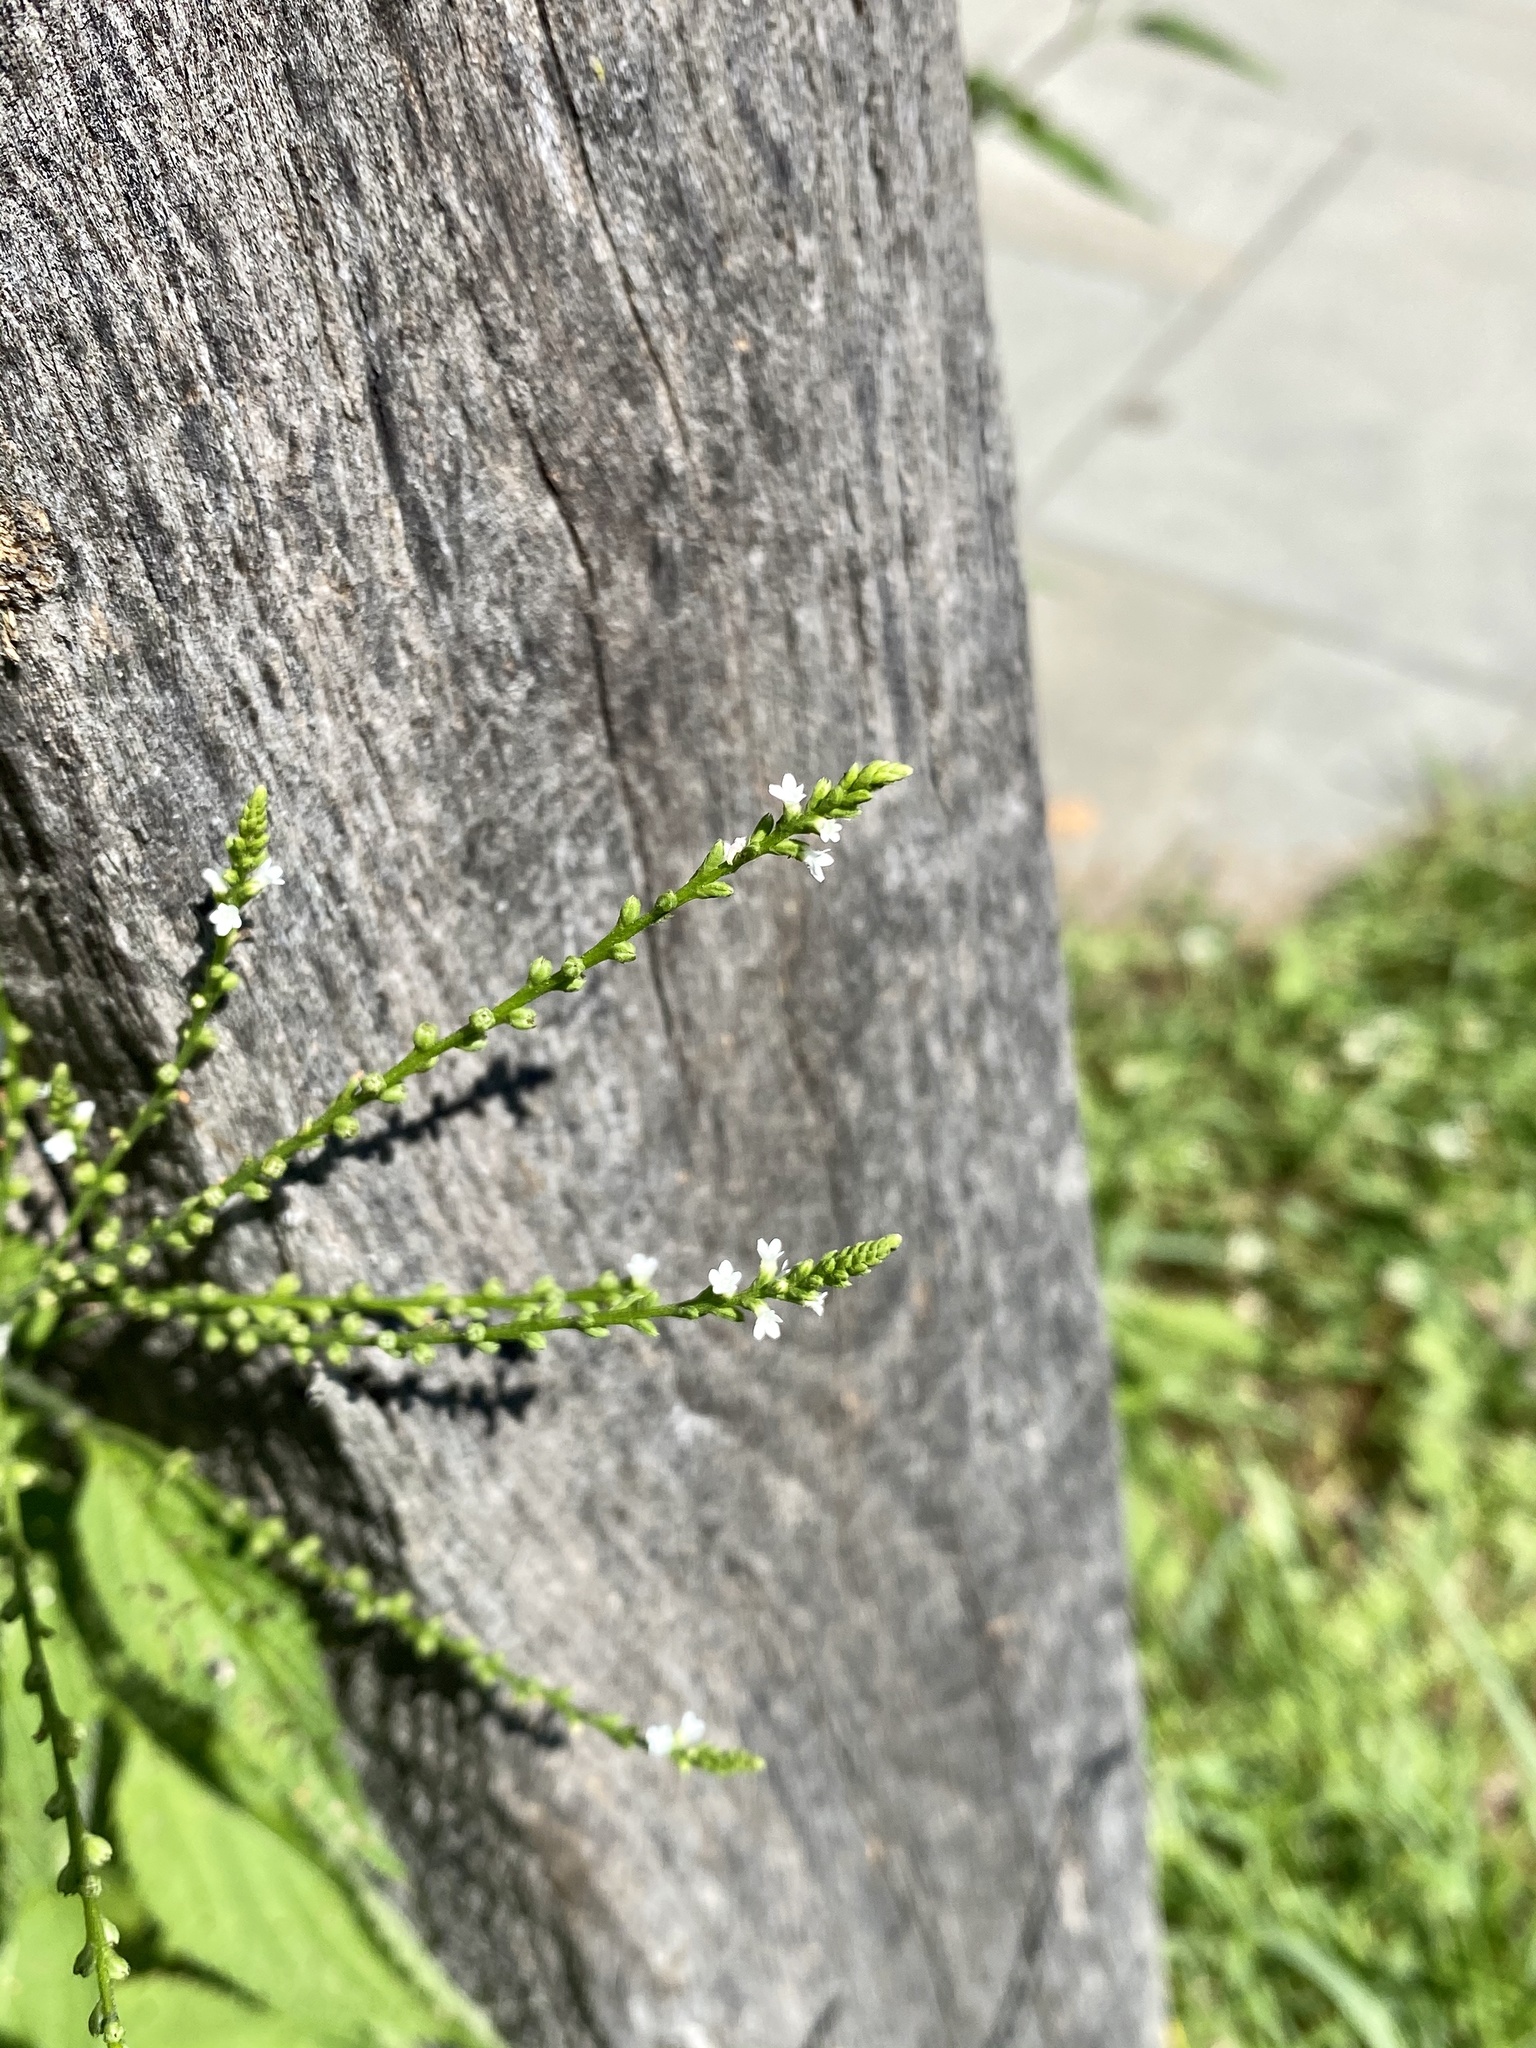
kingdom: Plantae
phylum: Tracheophyta
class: Magnoliopsida
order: Lamiales
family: Verbenaceae
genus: Verbena
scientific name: Verbena urticifolia
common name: Nettle-leaved vervain
